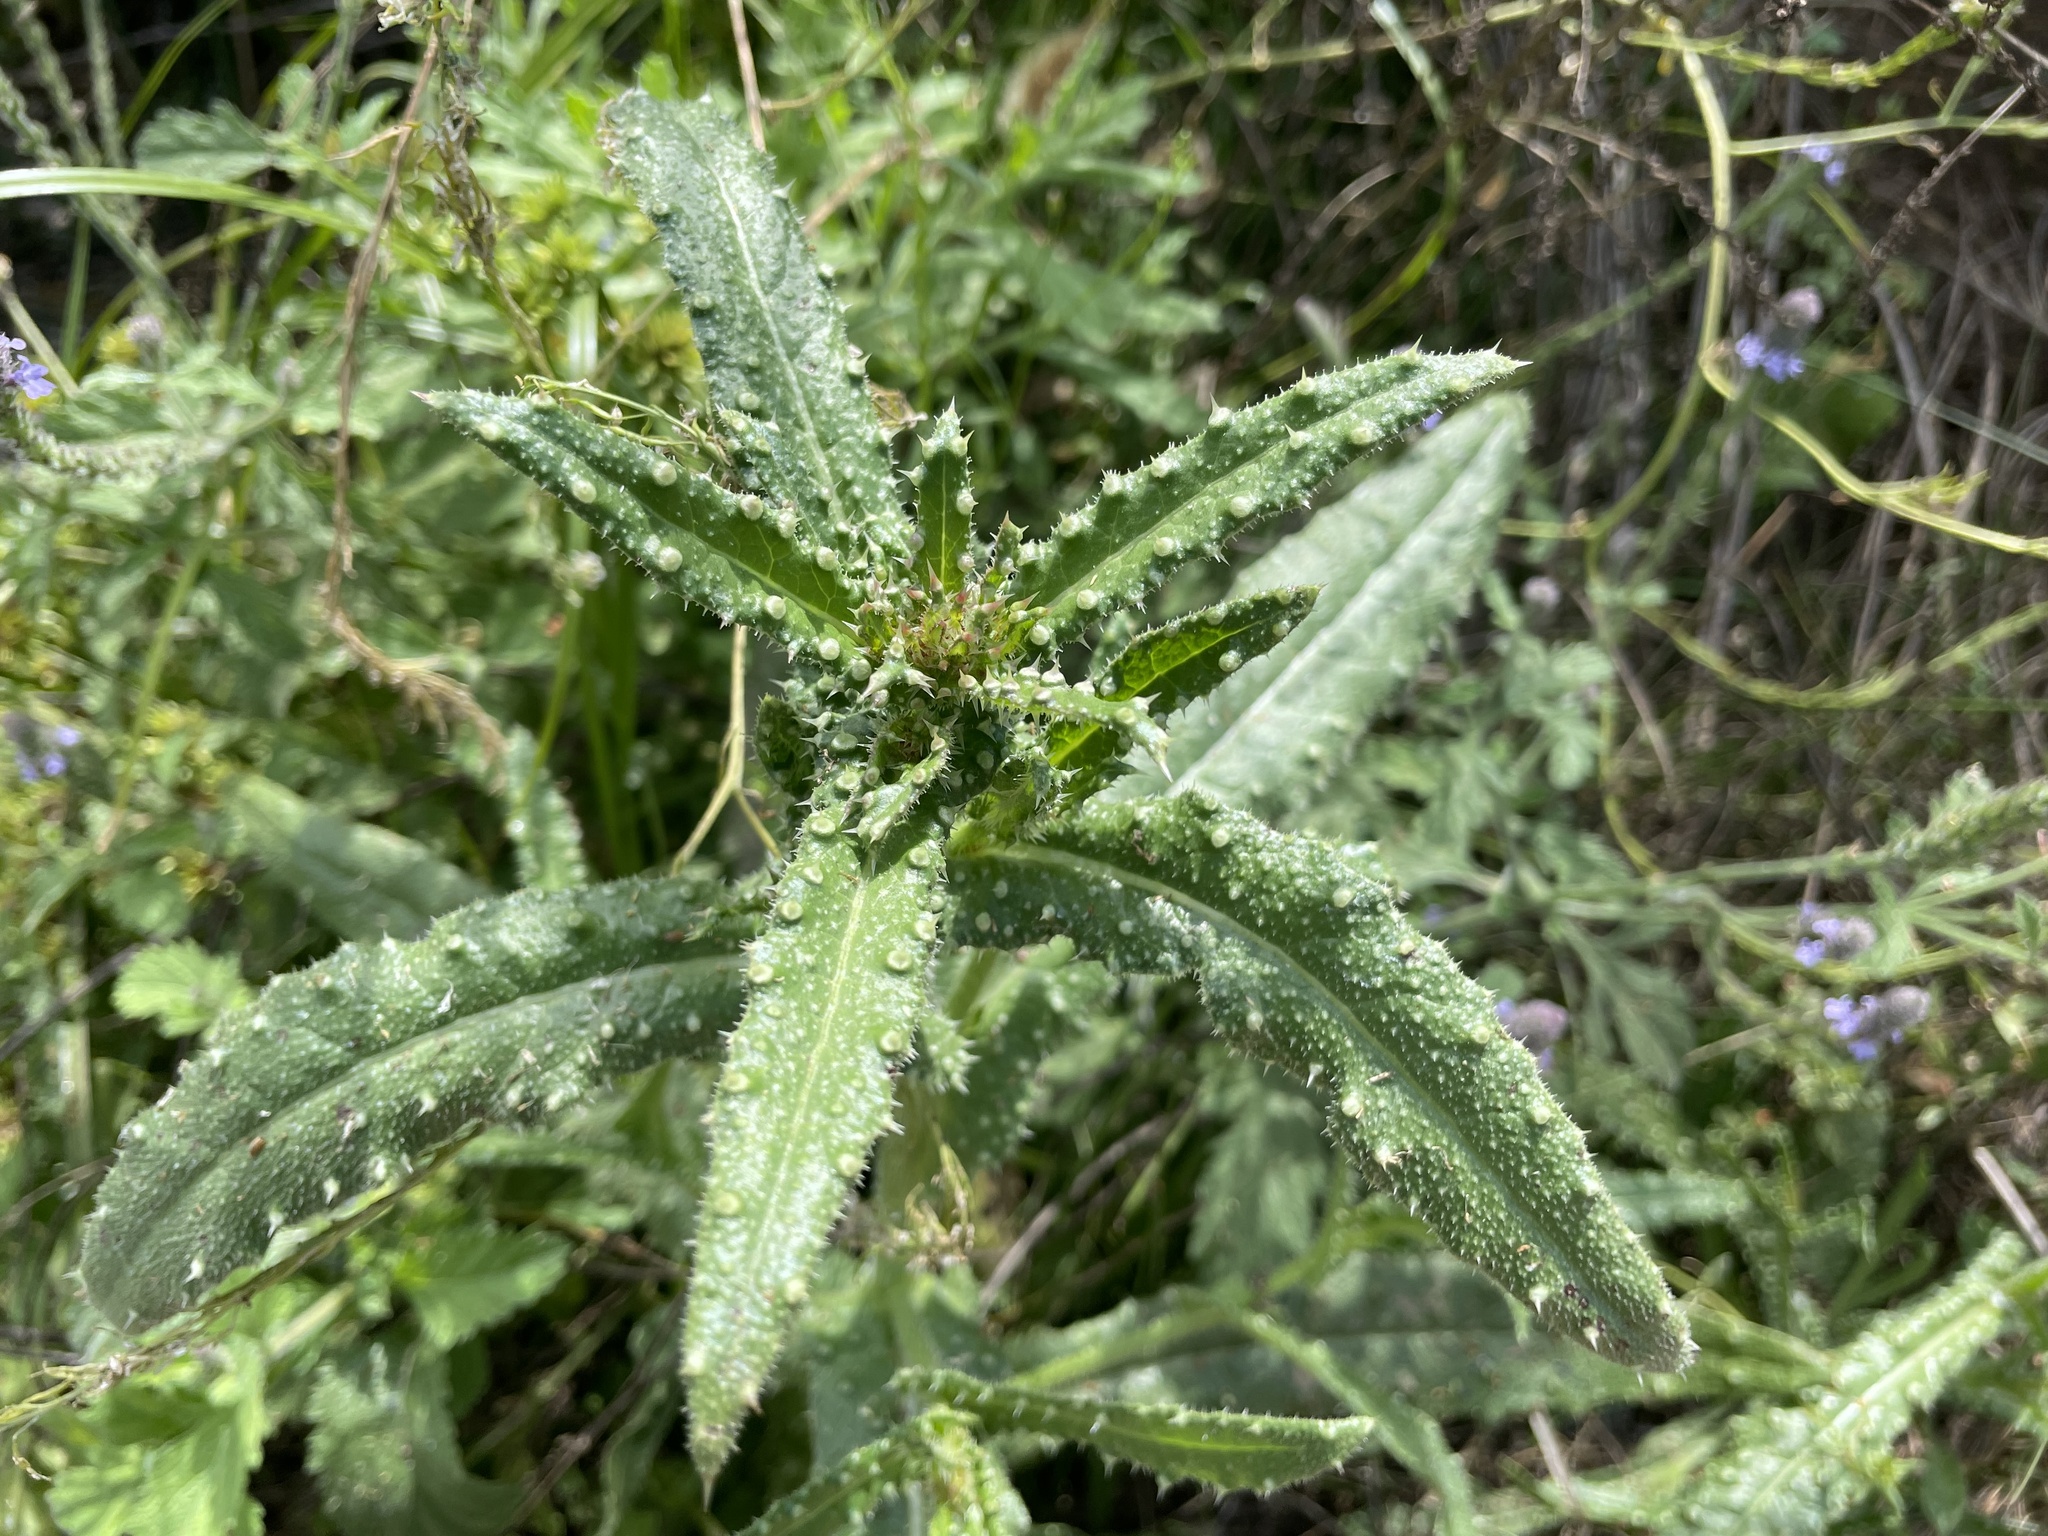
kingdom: Plantae
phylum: Tracheophyta
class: Magnoliopsida
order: Asterales
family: Asteraceae
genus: Helminthotheca
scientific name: Helminthotheca echioides
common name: Ox-tongue
